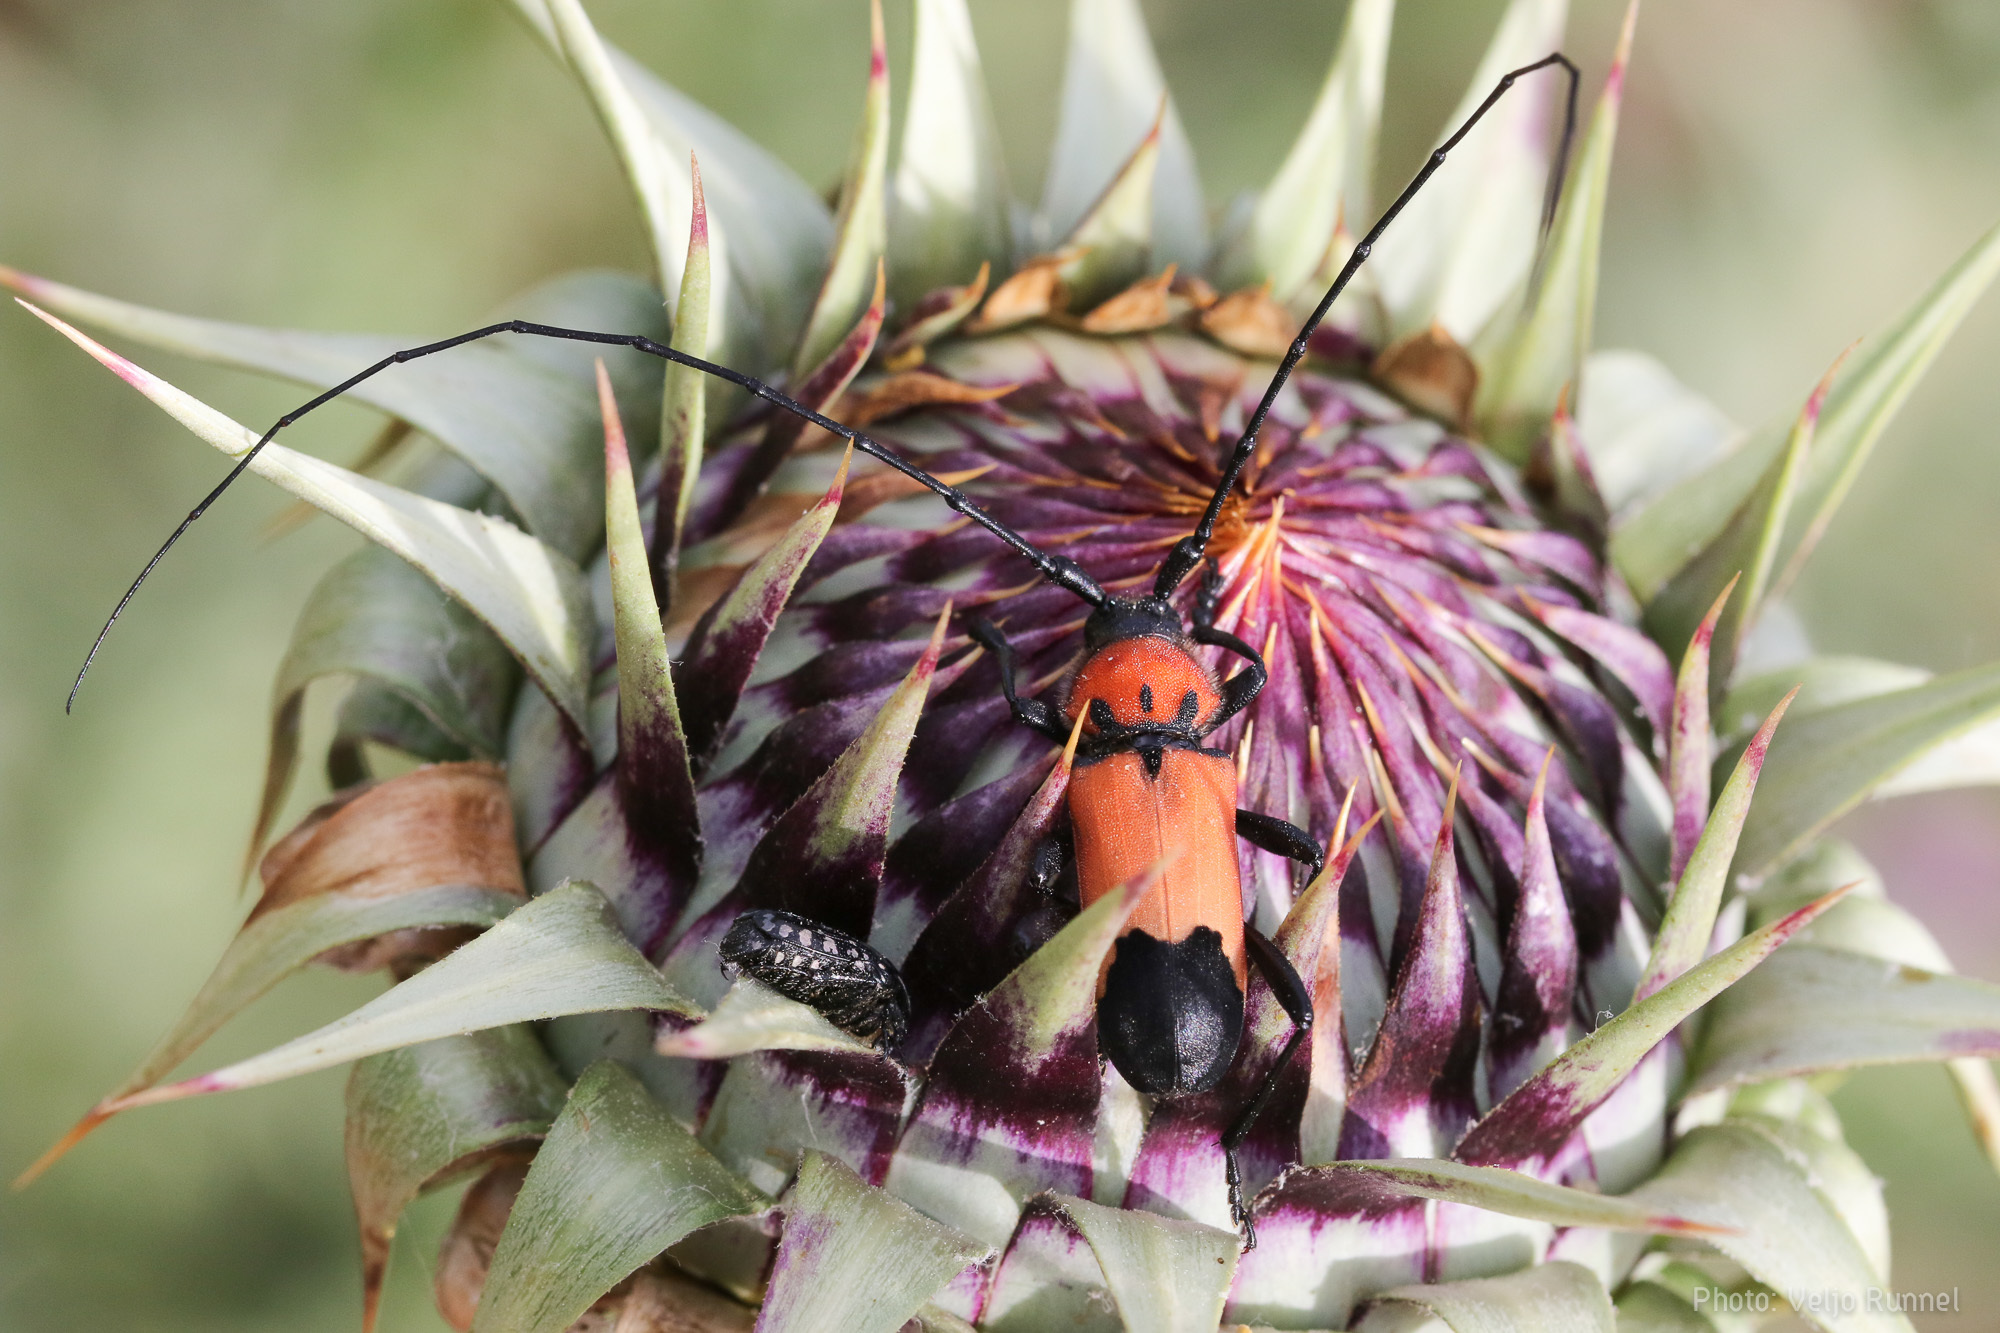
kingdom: Animalia
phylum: Arthropoda
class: Insecta
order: Coleoptera
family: Cerambycidae
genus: Purpuricenus
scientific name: Purpuricenus desfontainii
